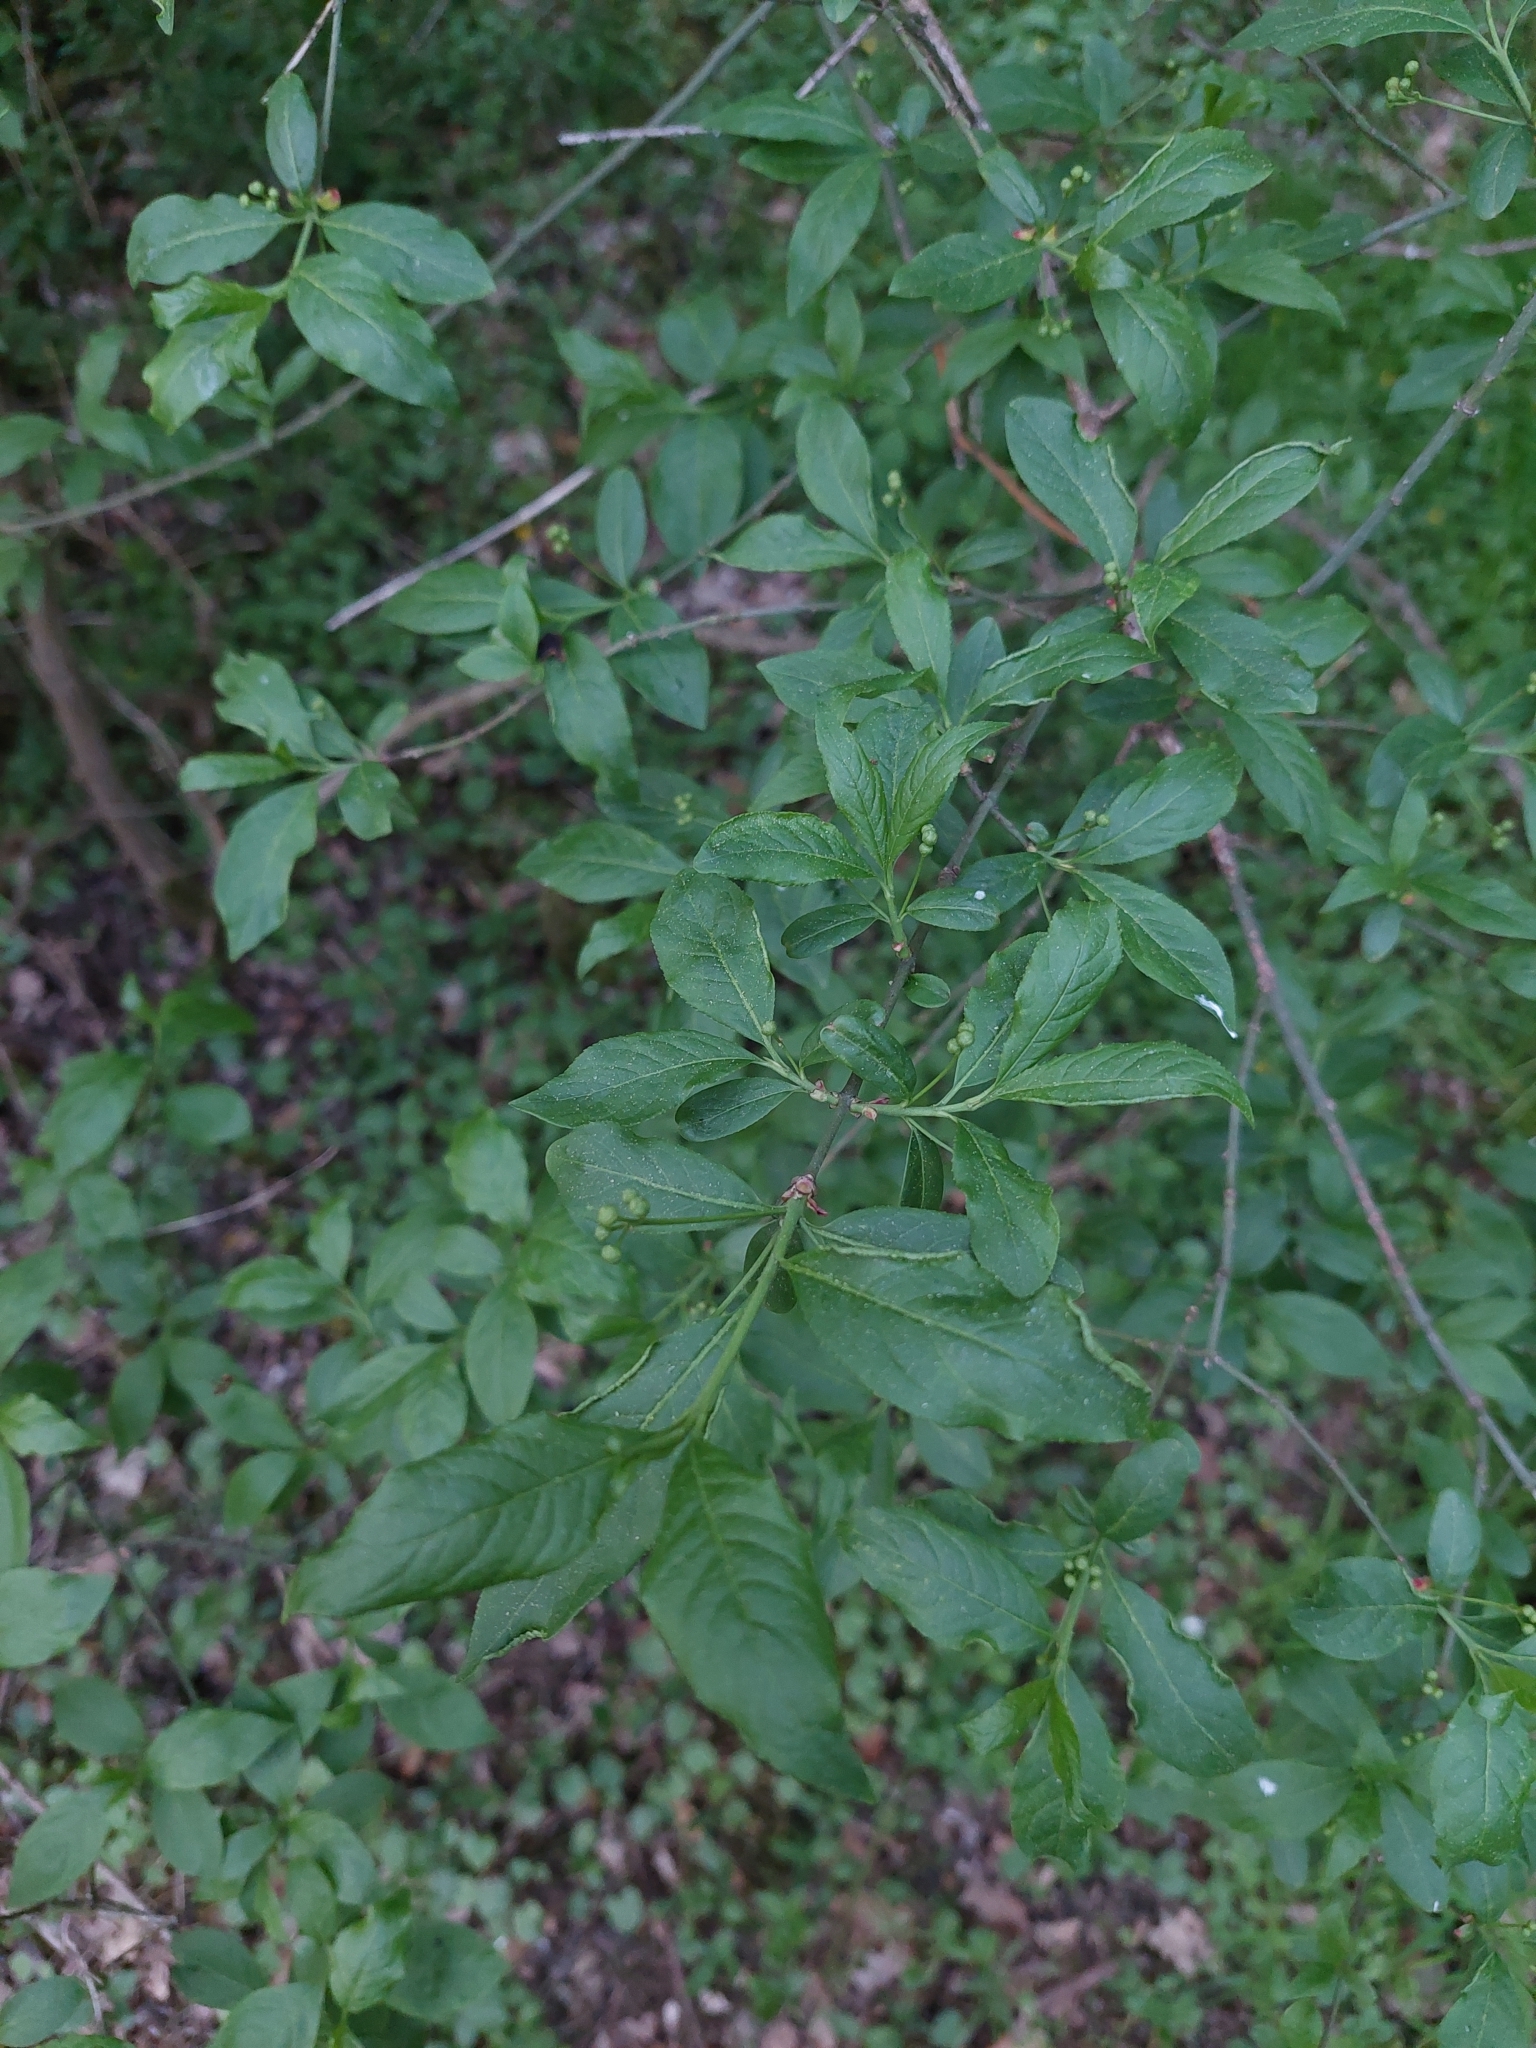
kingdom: Plantae
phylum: Tracheophyta
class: Magnoliopsida
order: Celastrales
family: Celastraceae
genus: Euonymus
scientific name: Euonymus europaeus
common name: Spindle
